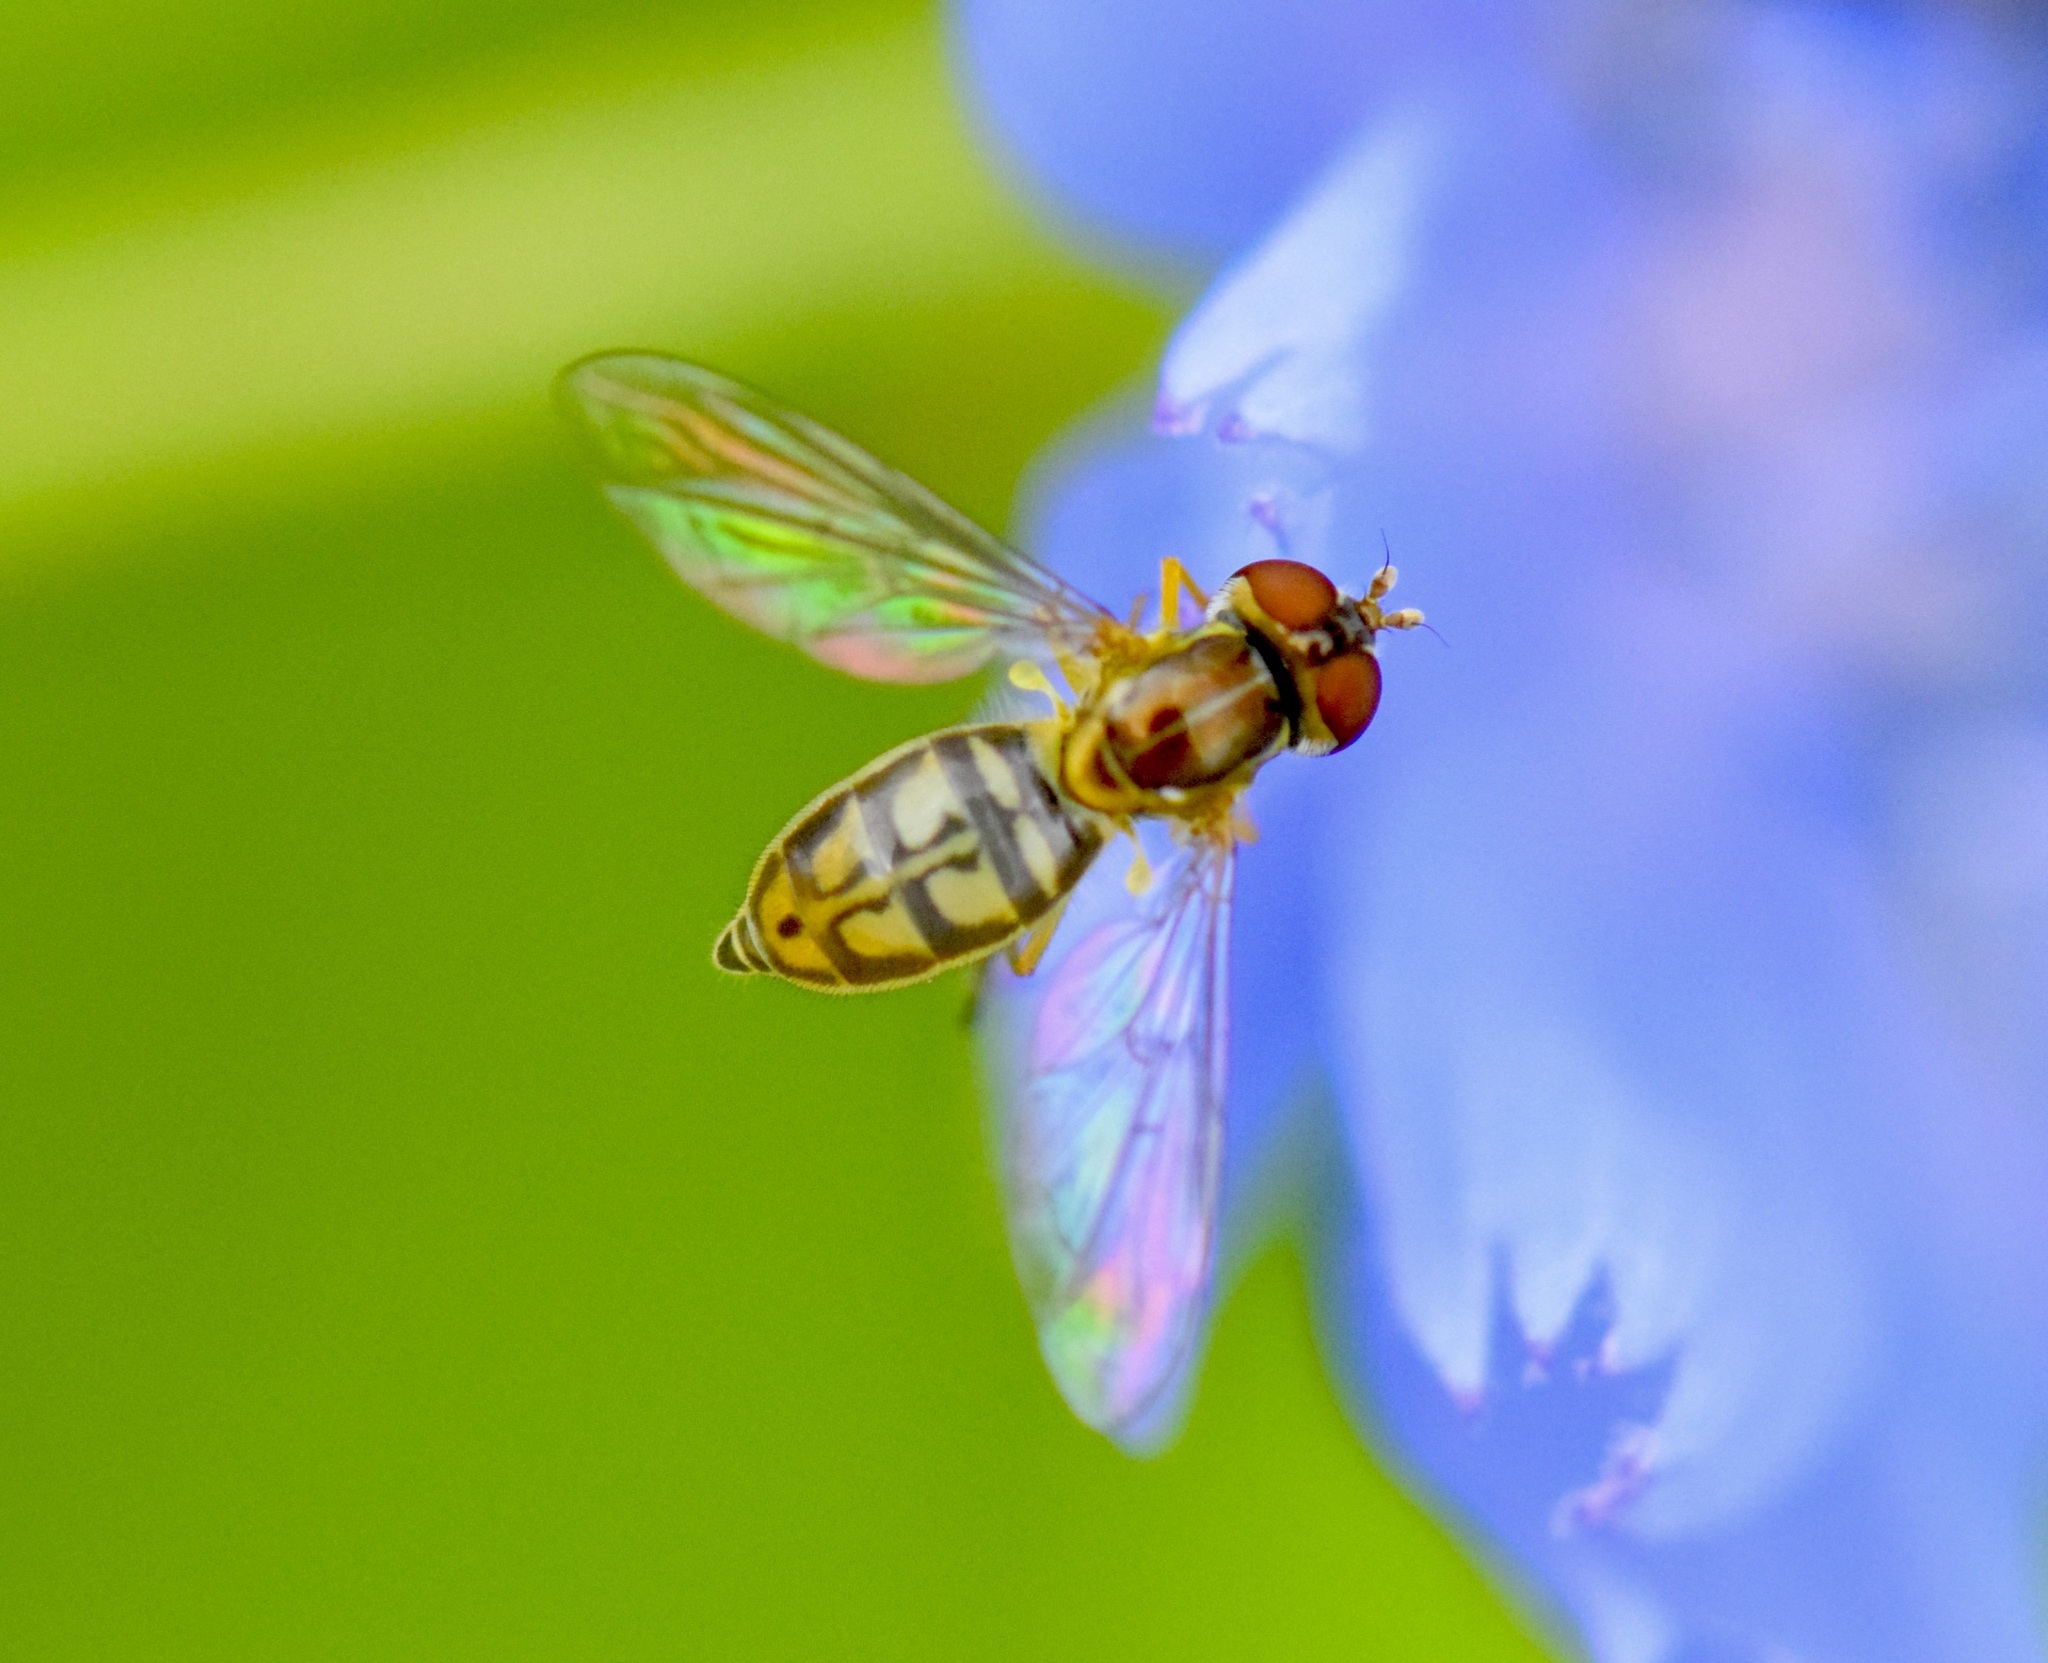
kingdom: Animalia
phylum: Arthropoda
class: Insecta
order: Diptera
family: Syrphidae
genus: Toxomerus
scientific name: Toxomerus marginatus
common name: Syrphid fly
